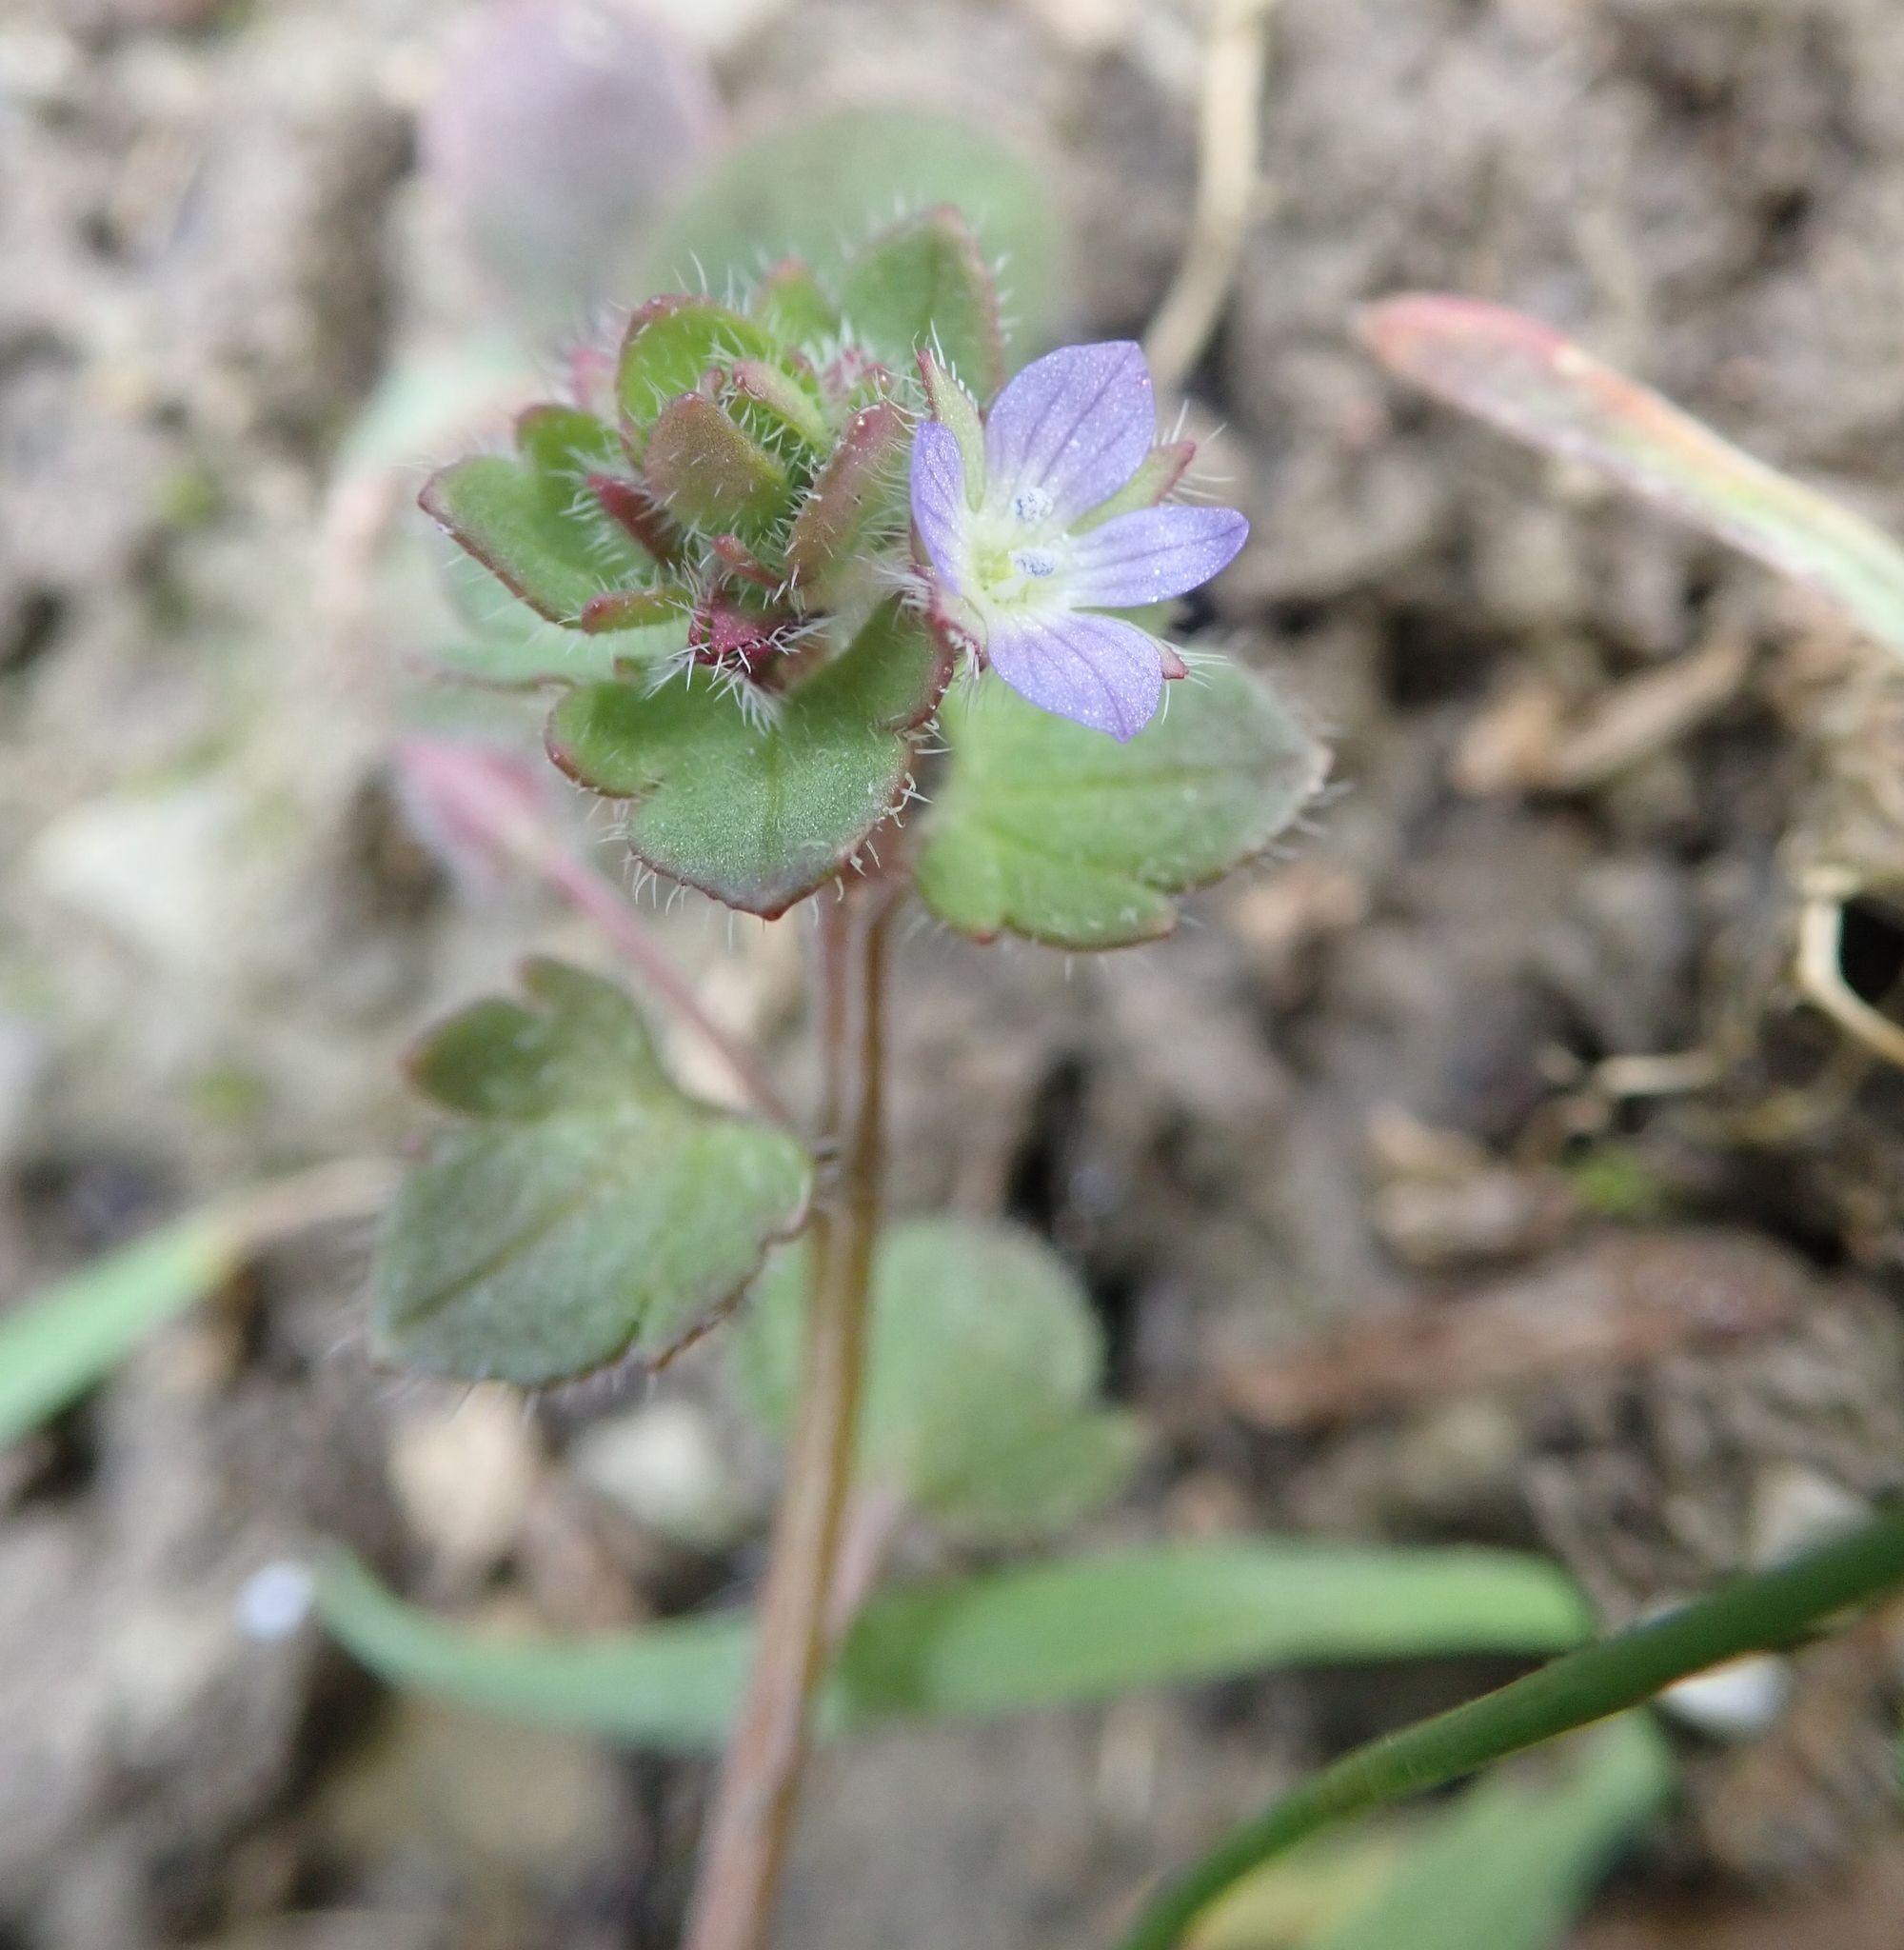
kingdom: Plantae
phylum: Tracheophyta
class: Magnoliopsida
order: Lamiales
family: Plantaginaceae
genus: Veronica
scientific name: Veronica hederifolia
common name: Ivy-leaved speedwell
